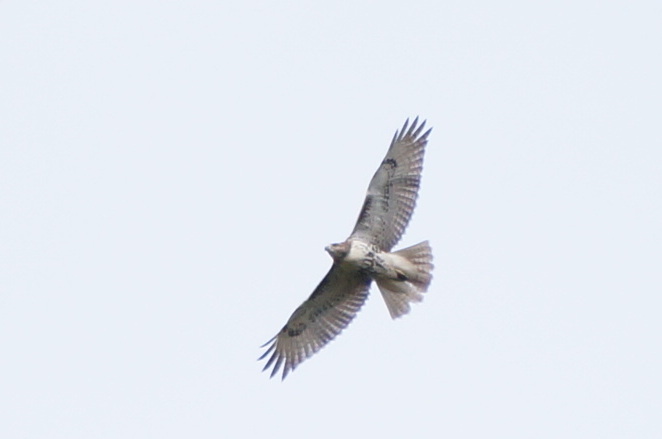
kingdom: Animalia
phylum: Chordata
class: Aves
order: Accipitriformes
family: Accipitridae
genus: Buteo
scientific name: Buteo jamaicensis
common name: Red-tailed hawk
